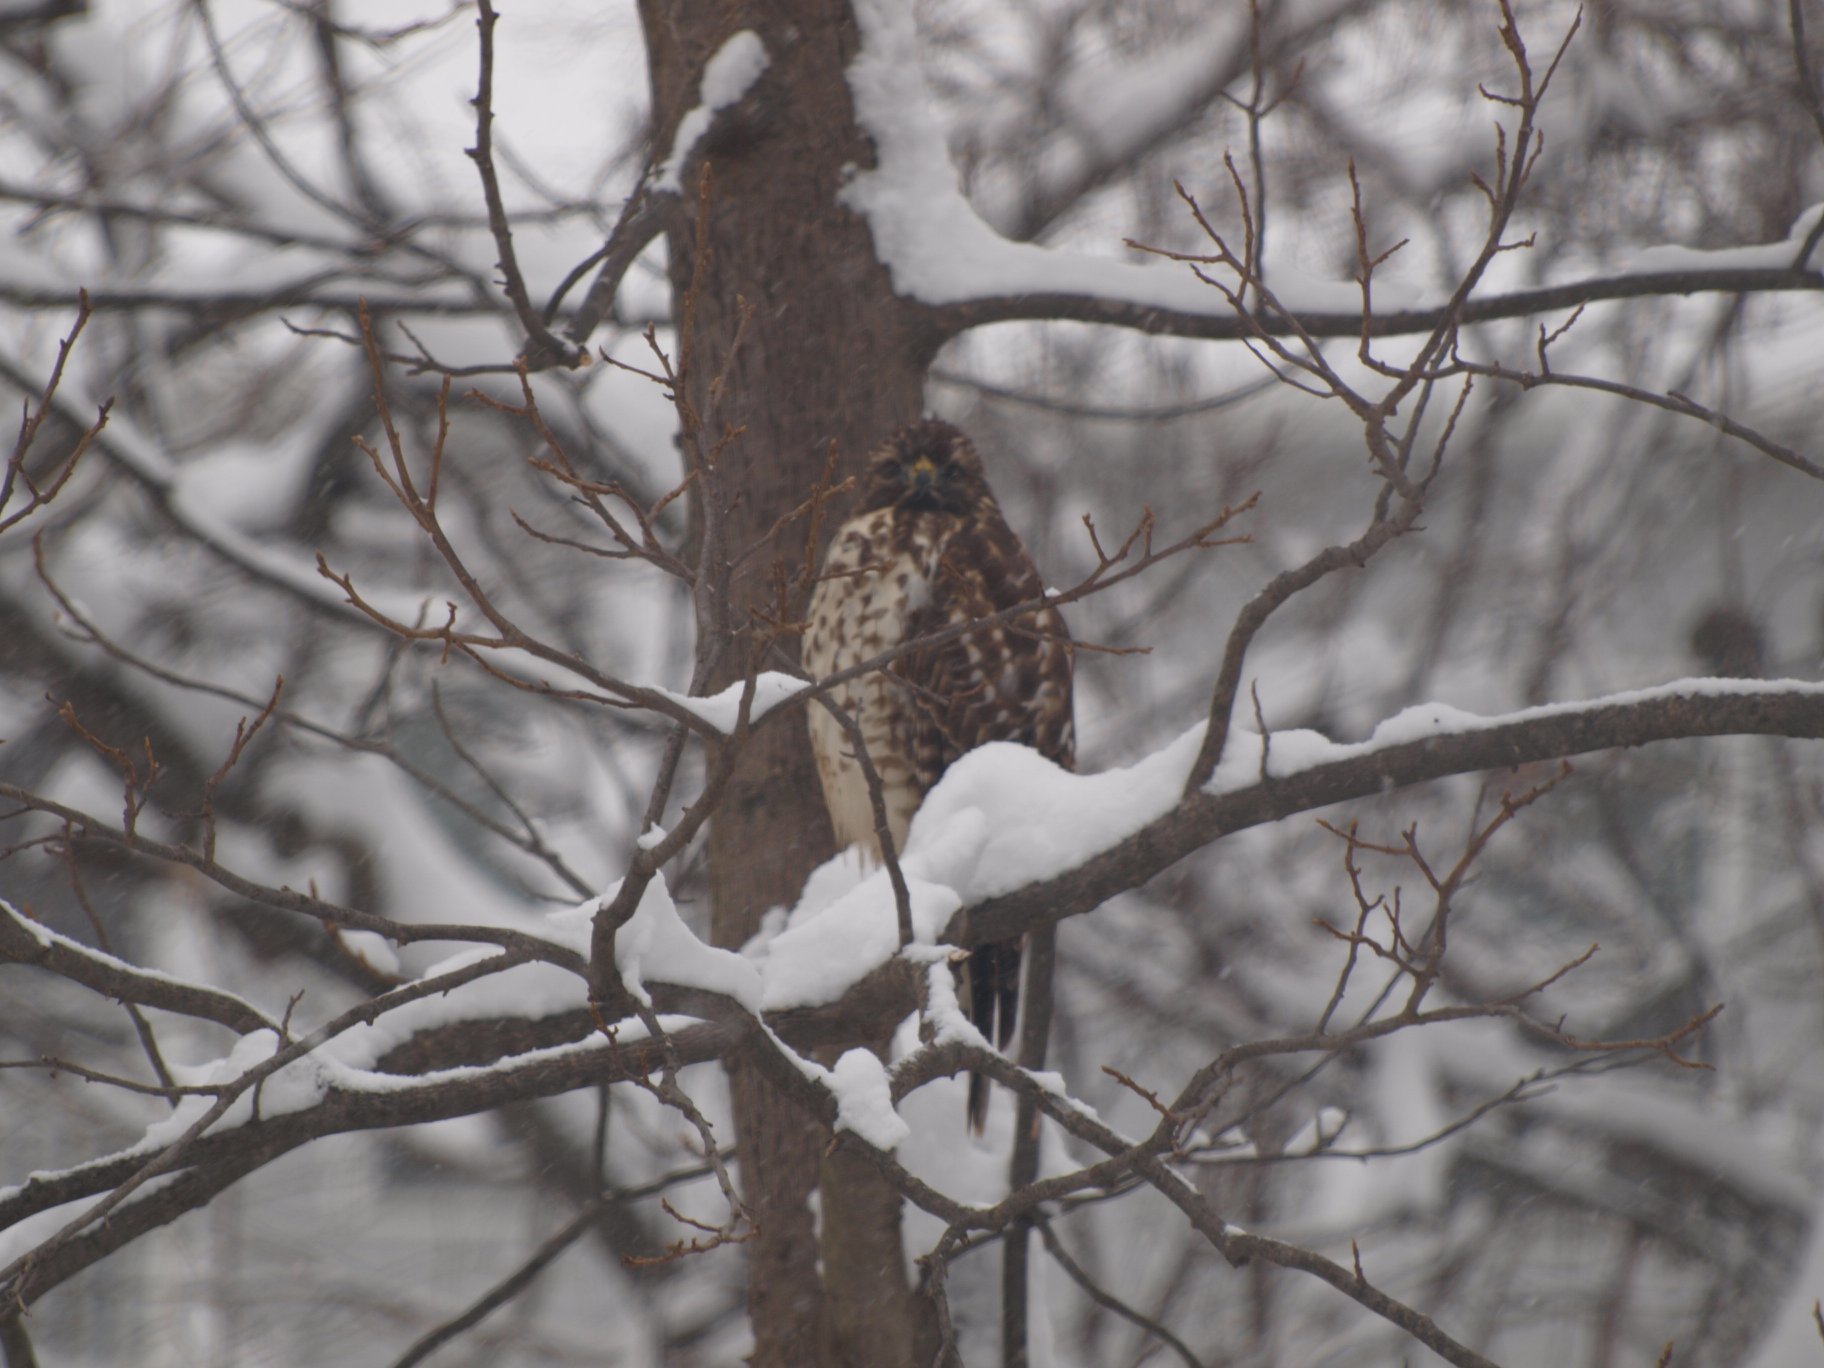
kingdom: Animalia
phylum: Chordata
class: Aves
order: Accipitriformes
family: Accipitridae
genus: Buteo
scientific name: Buteo lineatus
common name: Red-shouldered hawk
